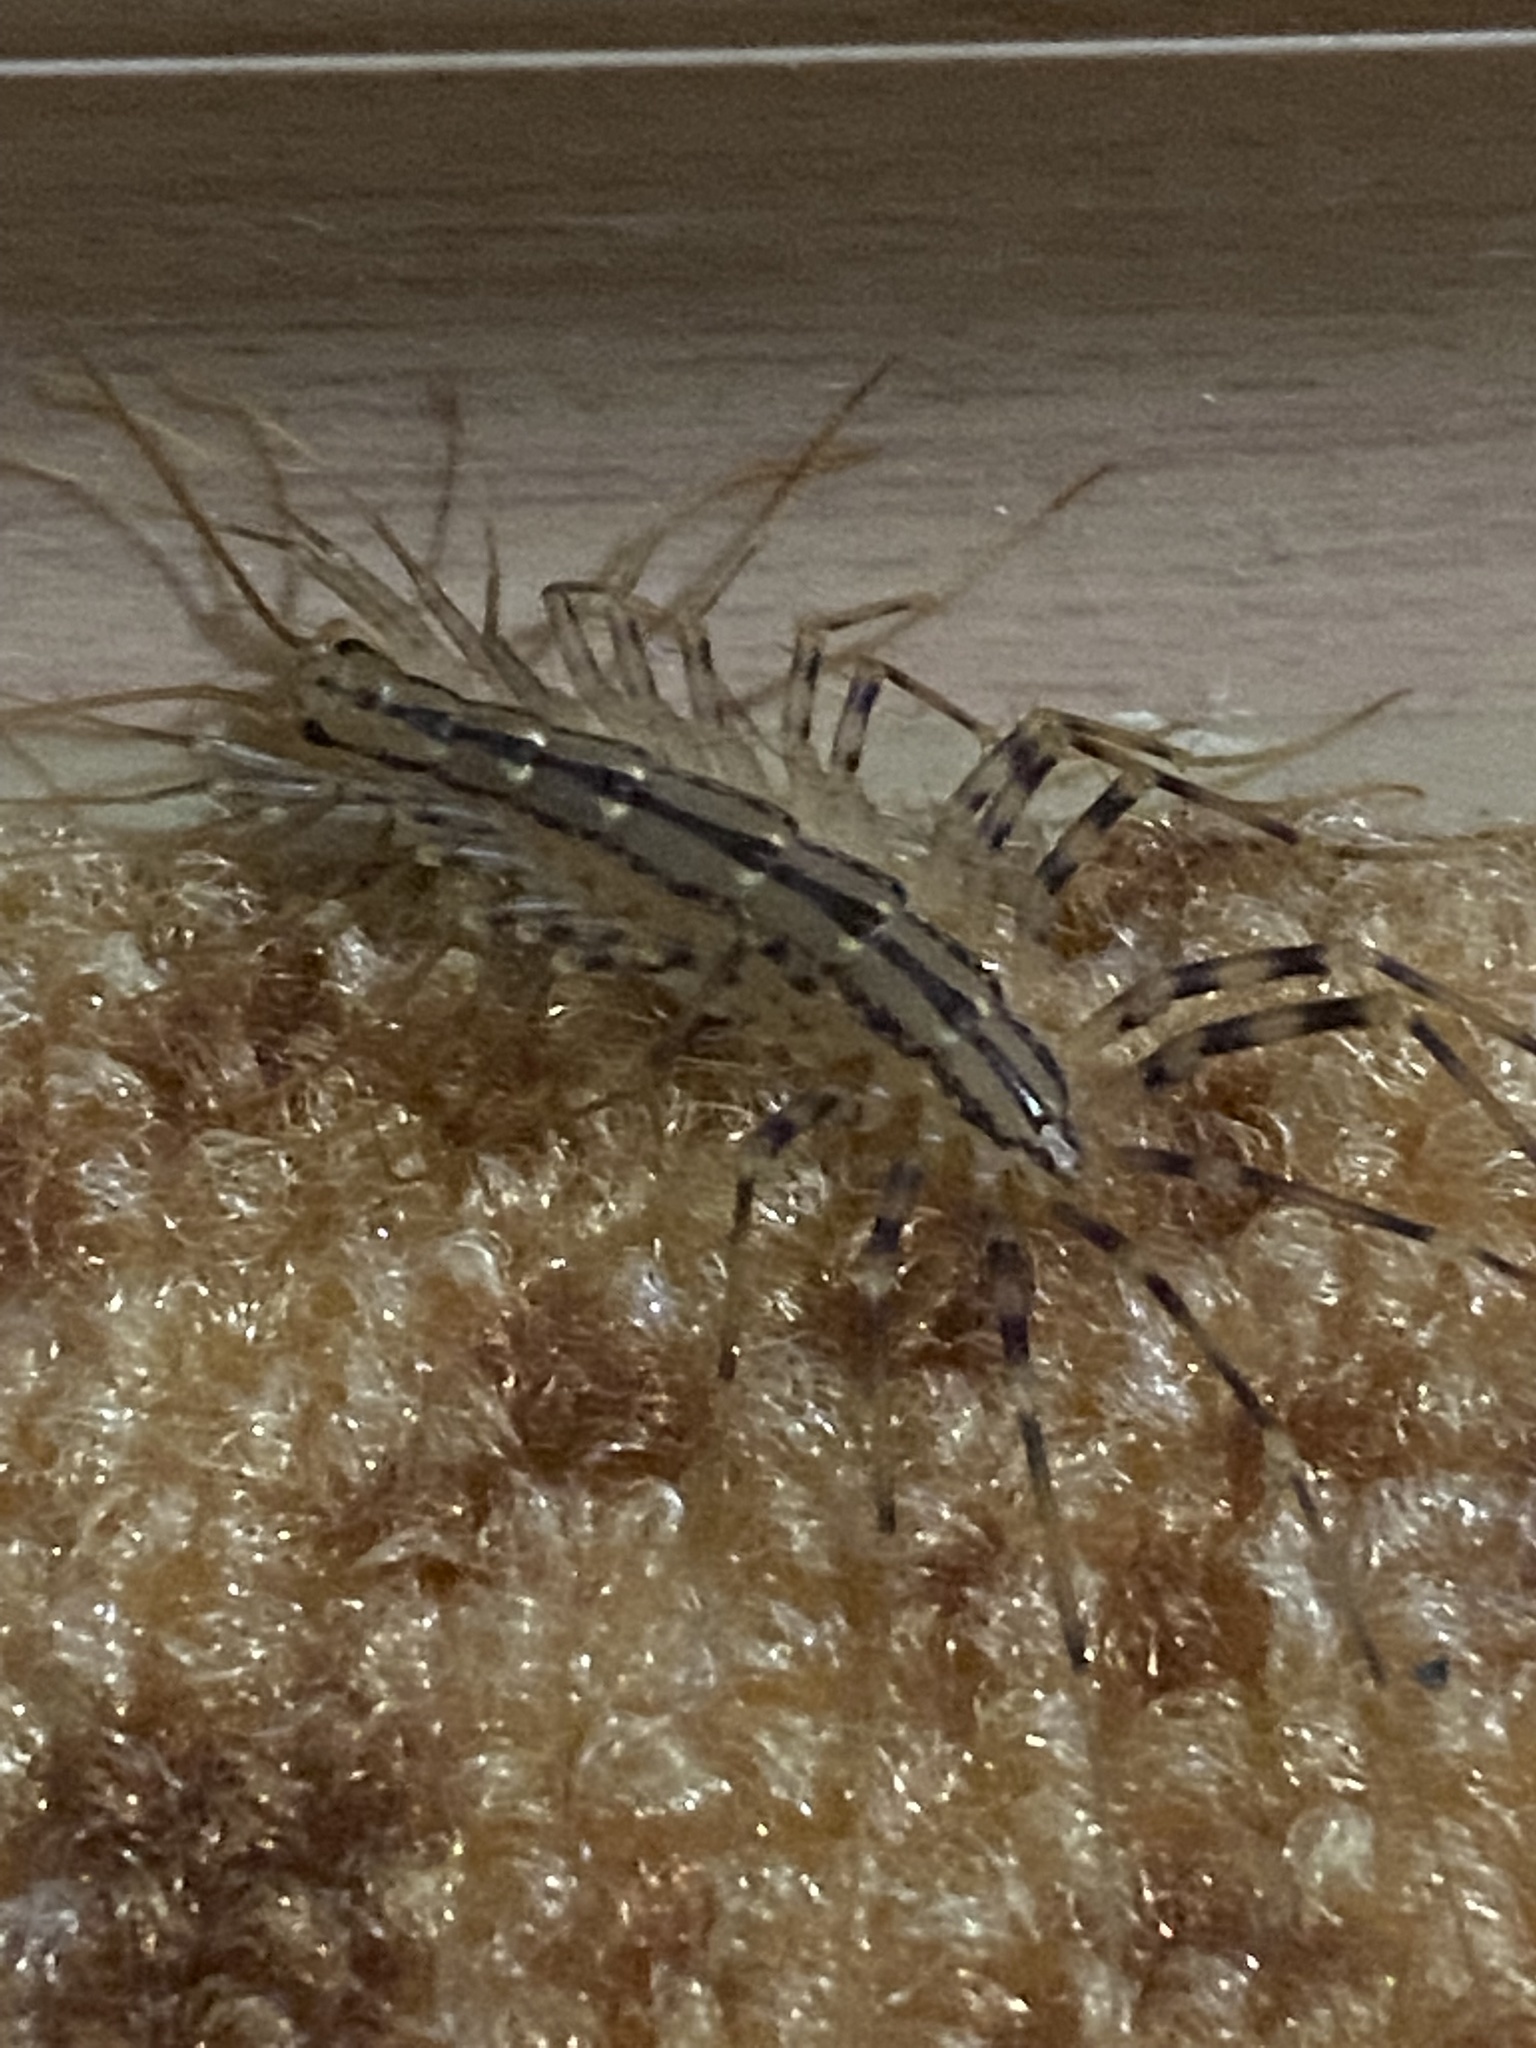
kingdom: Animalia
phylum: Arthropoda
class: Chilopoda
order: Scutigeromorpha
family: Scutigeridae
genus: Scutigera
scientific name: Scutigera coleoptrata
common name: House centipede
